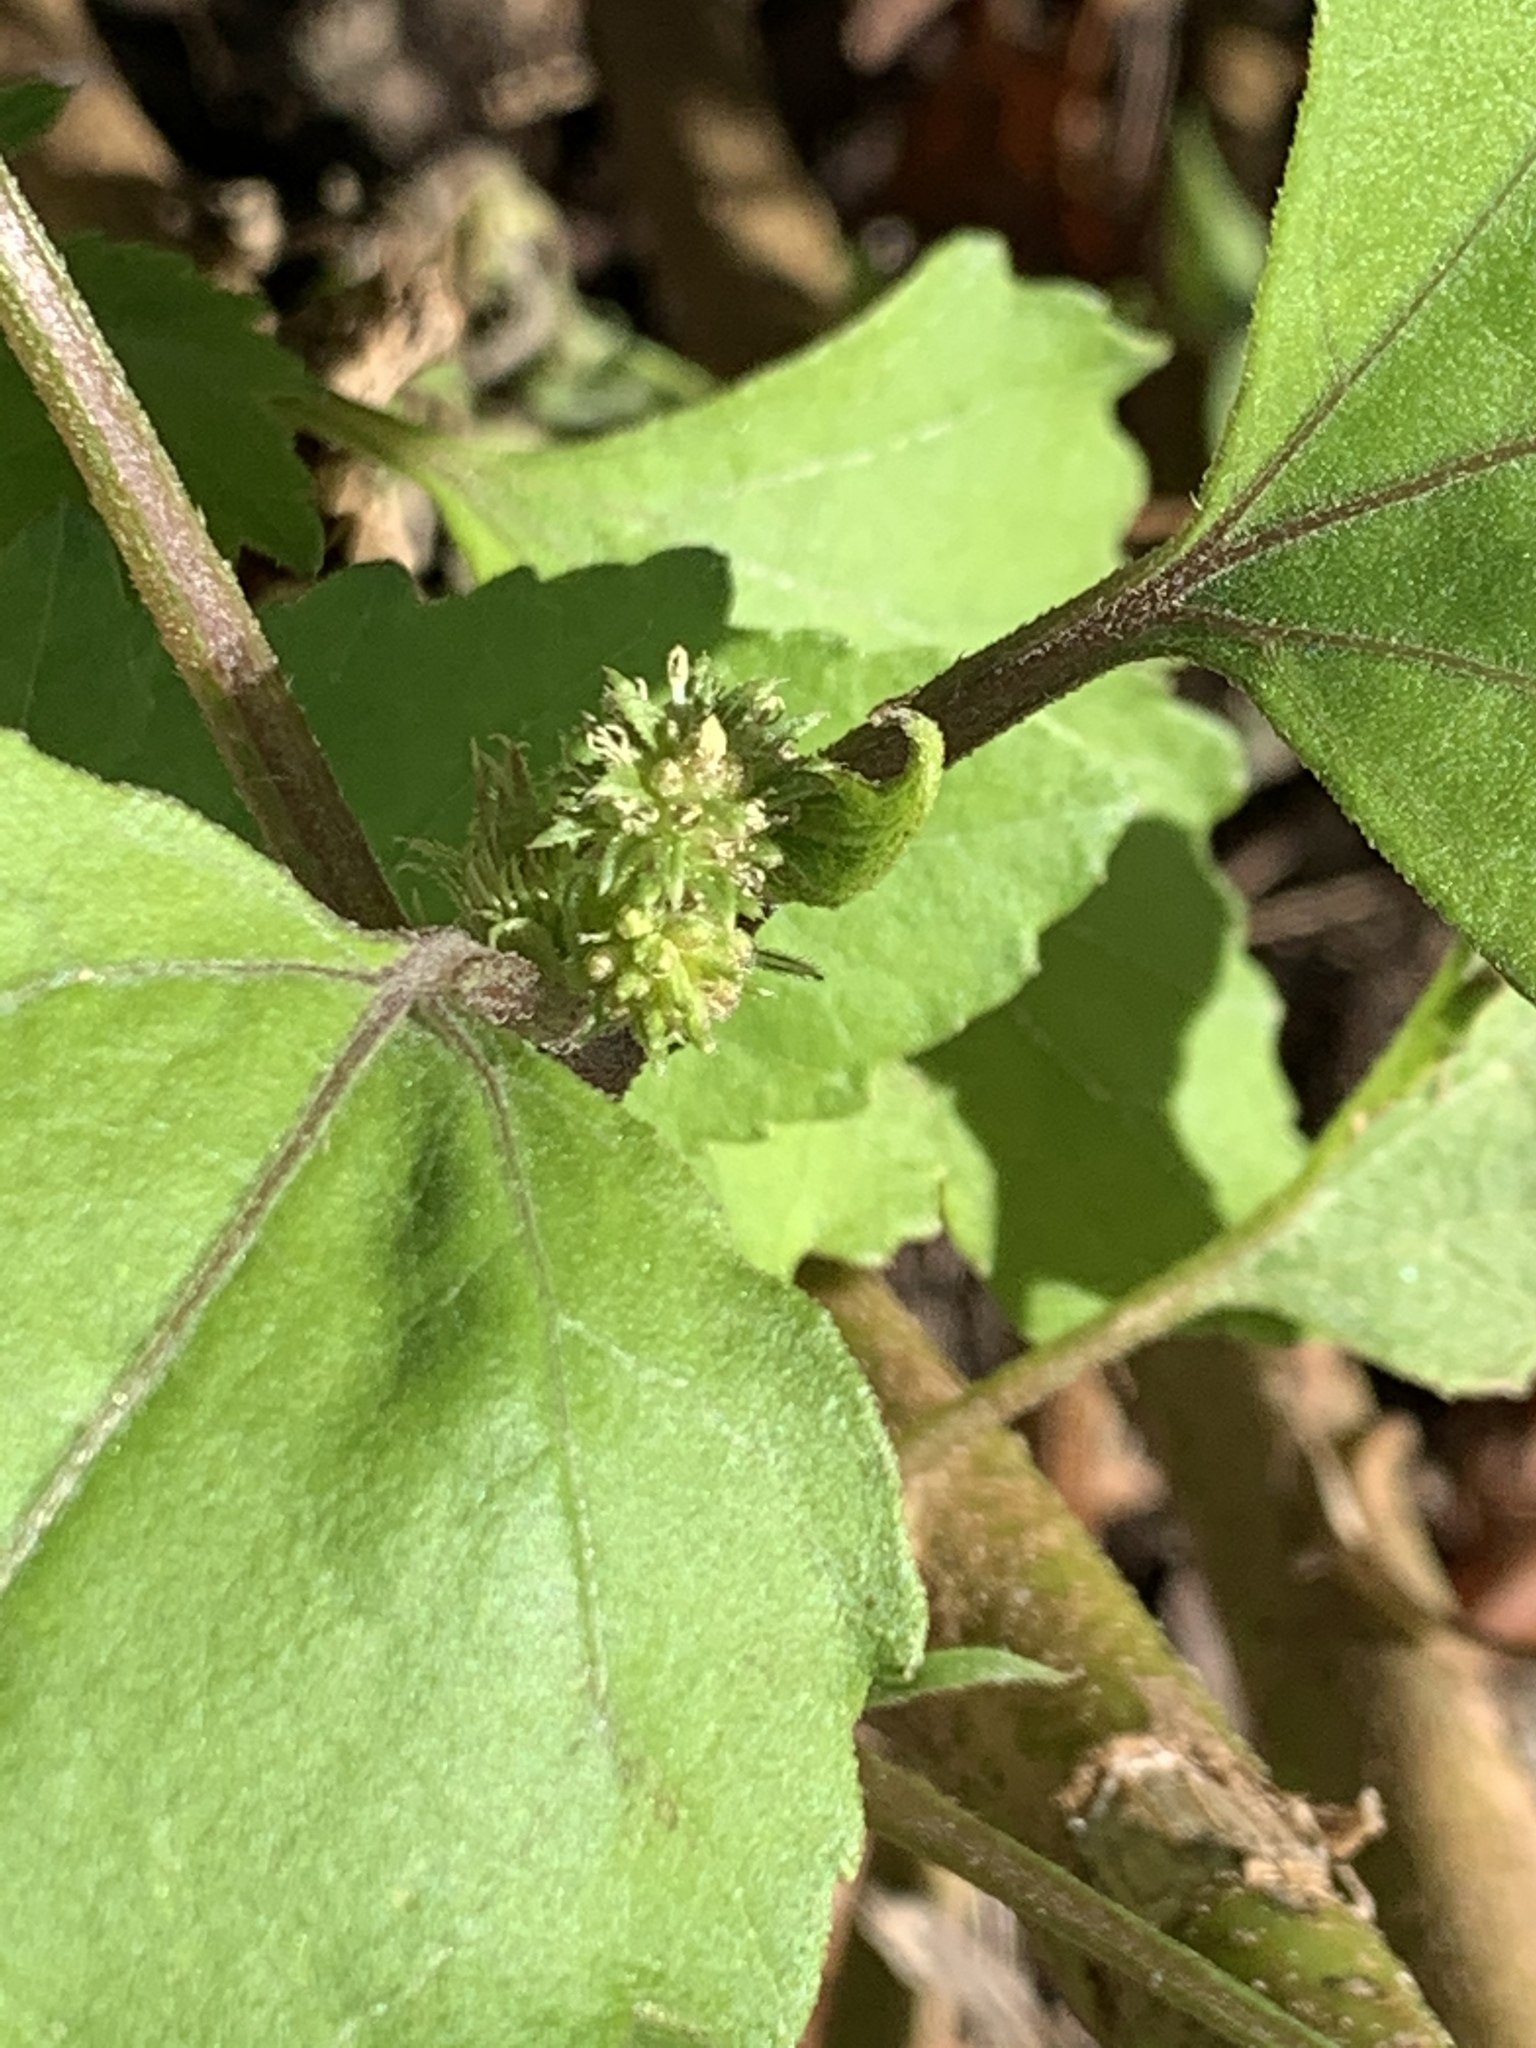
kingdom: Plantae
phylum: Tracheophyta
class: Magnoliopsida
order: Asterales
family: Asteraceae
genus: Xanthium
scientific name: Xanthium strumarium
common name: Rough cocklebur
